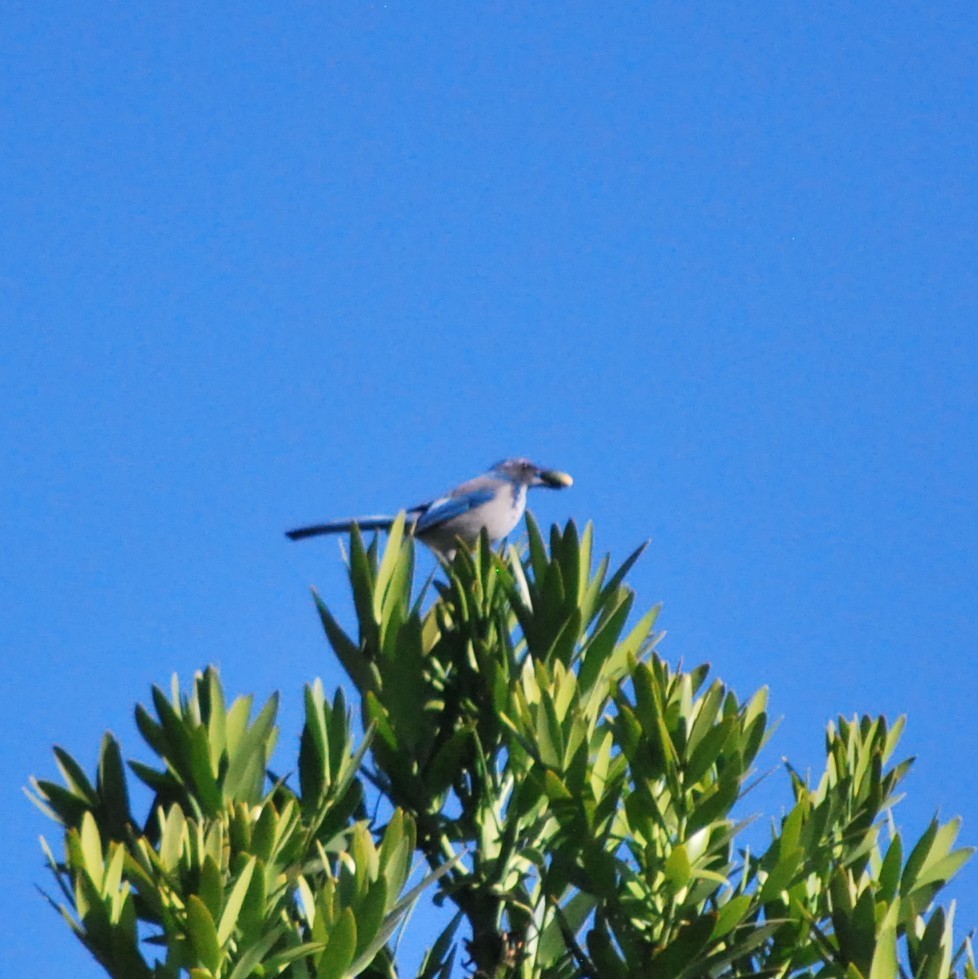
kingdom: Animalia
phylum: Chordata
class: Aves
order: Passeriformes
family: Corvidae
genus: Aphelocoma
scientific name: Aphelocoma californica
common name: California scrub-jay
